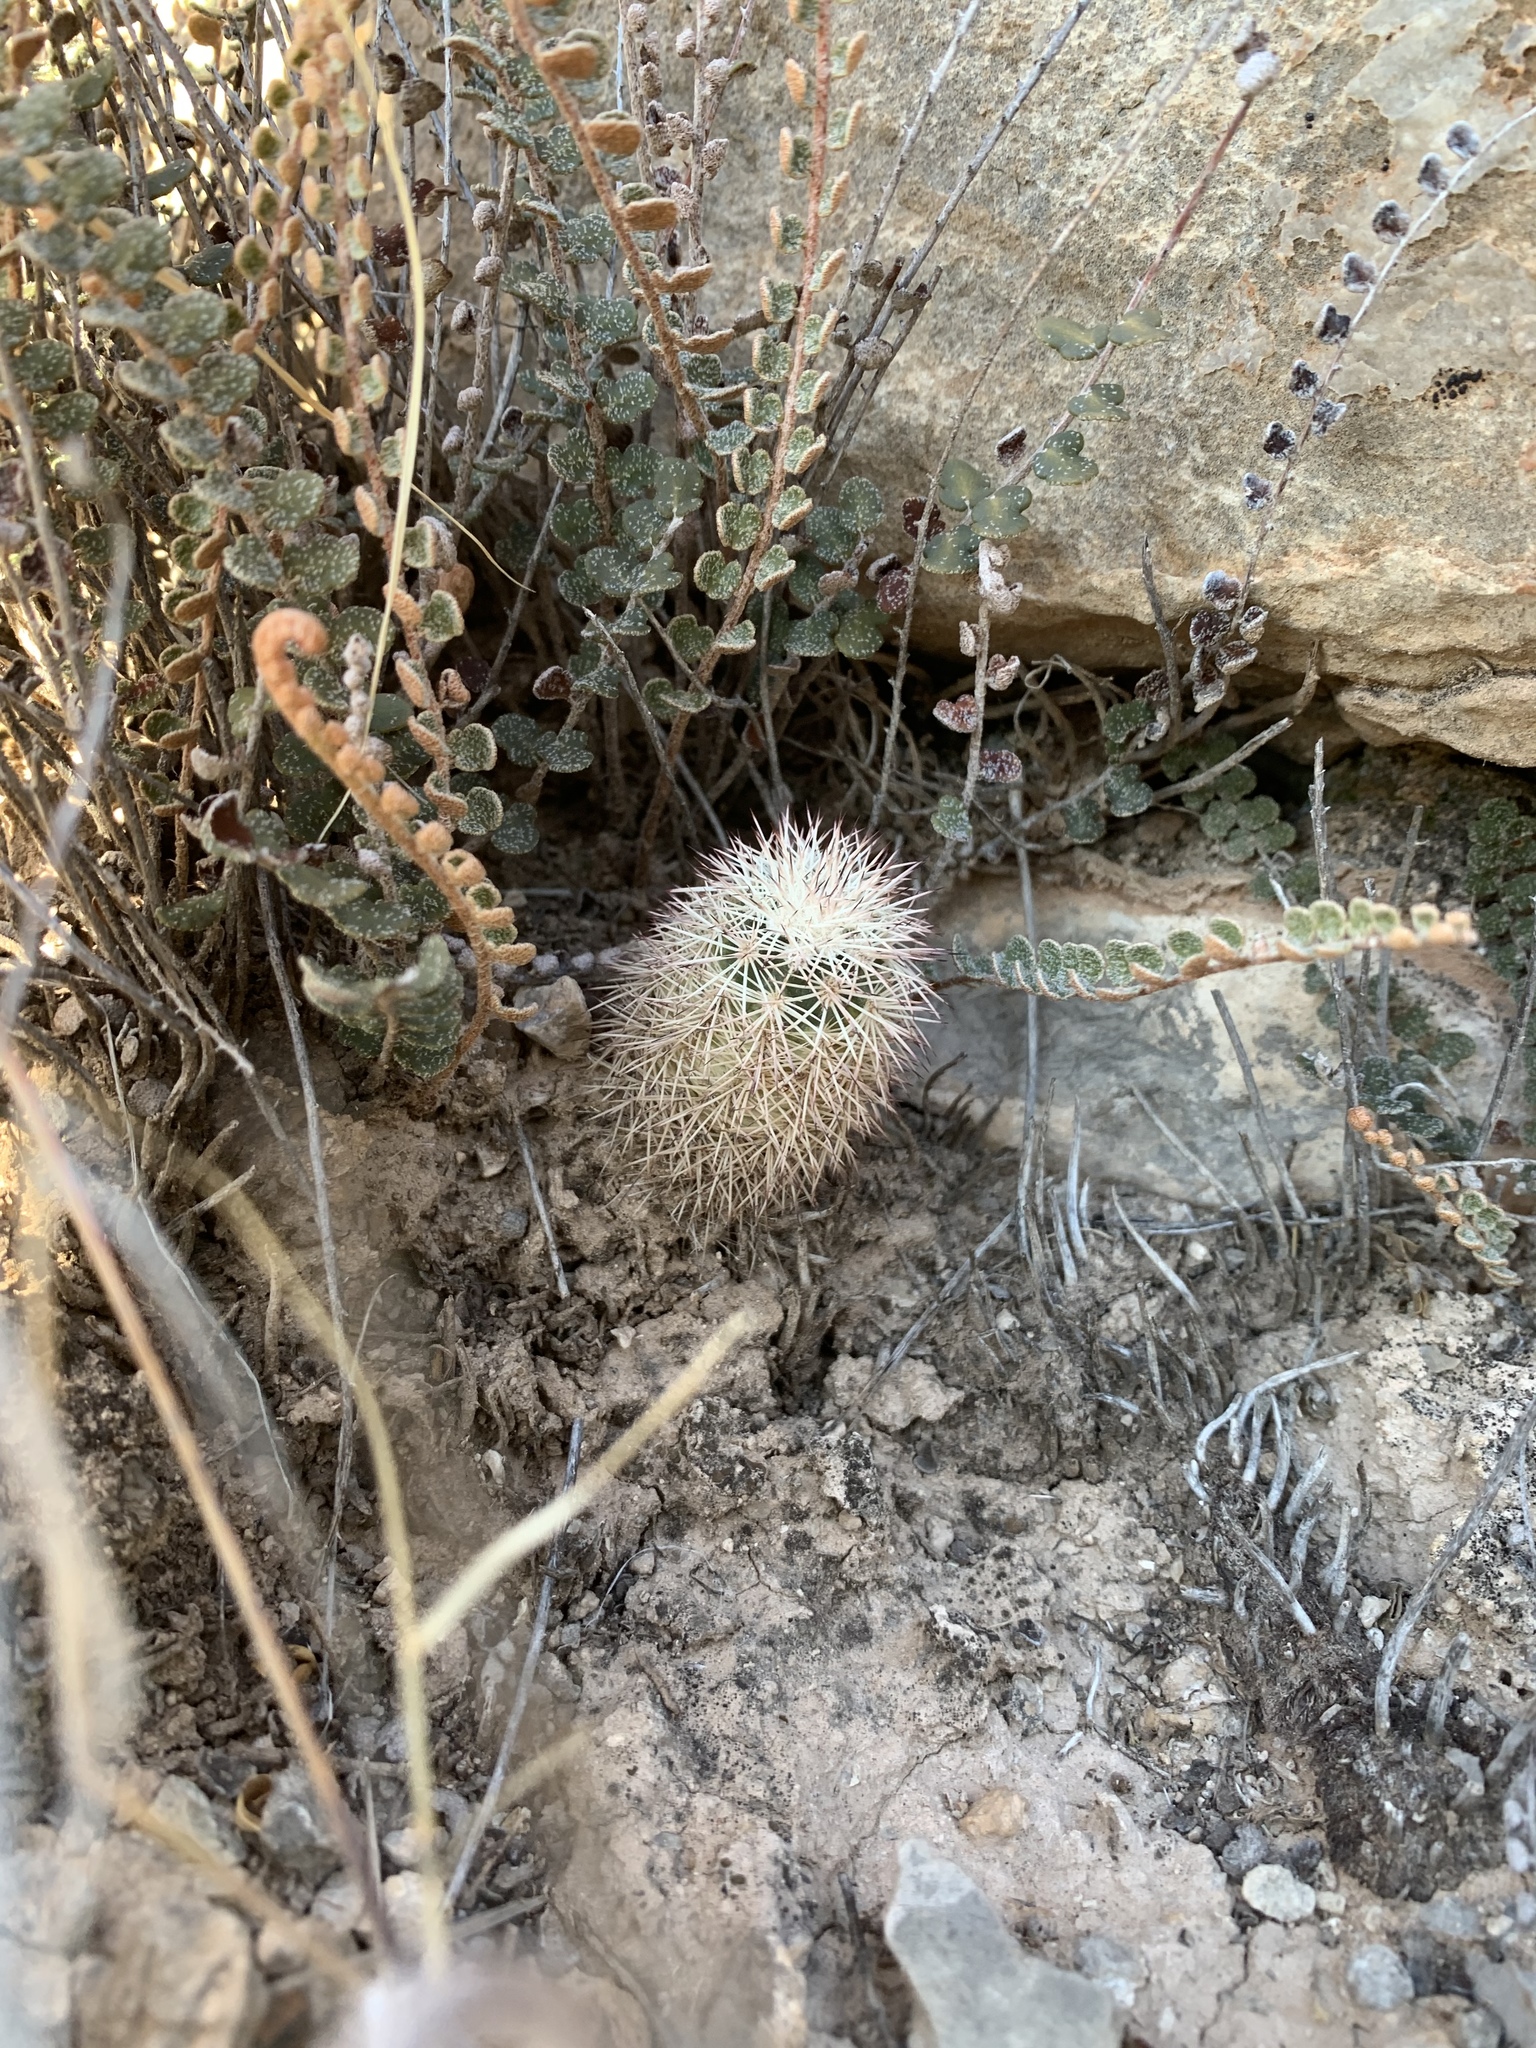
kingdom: Plantae
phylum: Tracheophyta
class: Magnoliopsida
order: Caryophyllales
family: Cactaceae
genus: Echinocereus
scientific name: Echinocereus dasyacanthus
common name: Spiny hedgehog cactus
